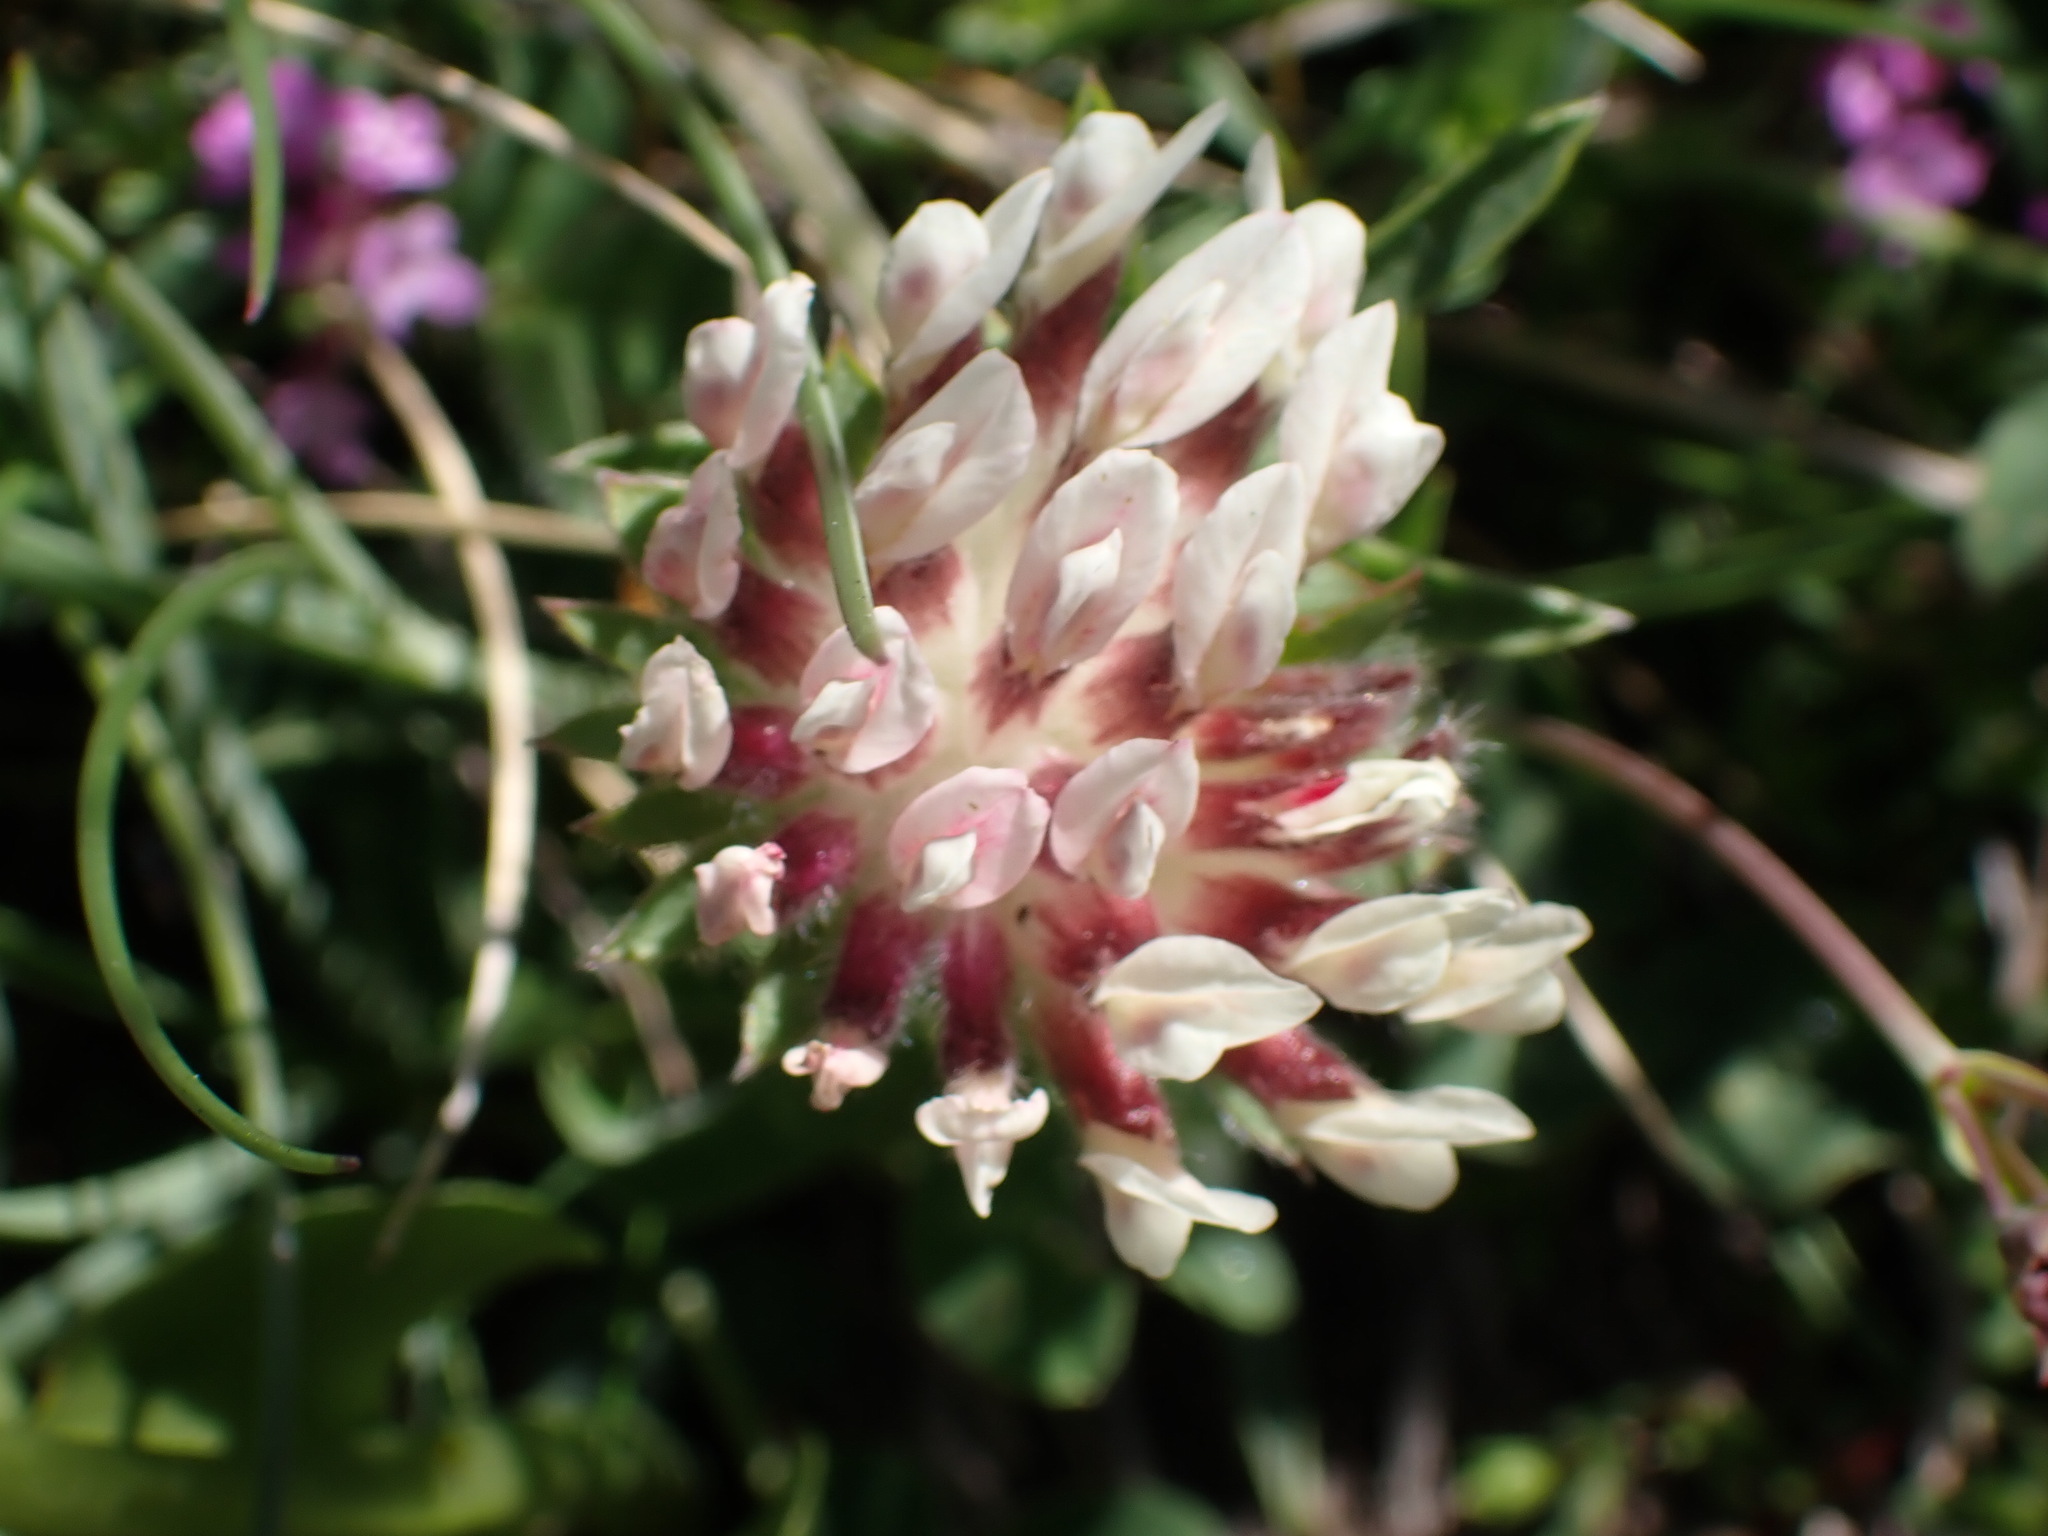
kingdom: Plantae
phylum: Tracheophyta
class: Magnoliopsida
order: Fabales
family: Fabaceae
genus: Anthyllis
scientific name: Anthyllis vulneraria
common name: Kidney vetch
